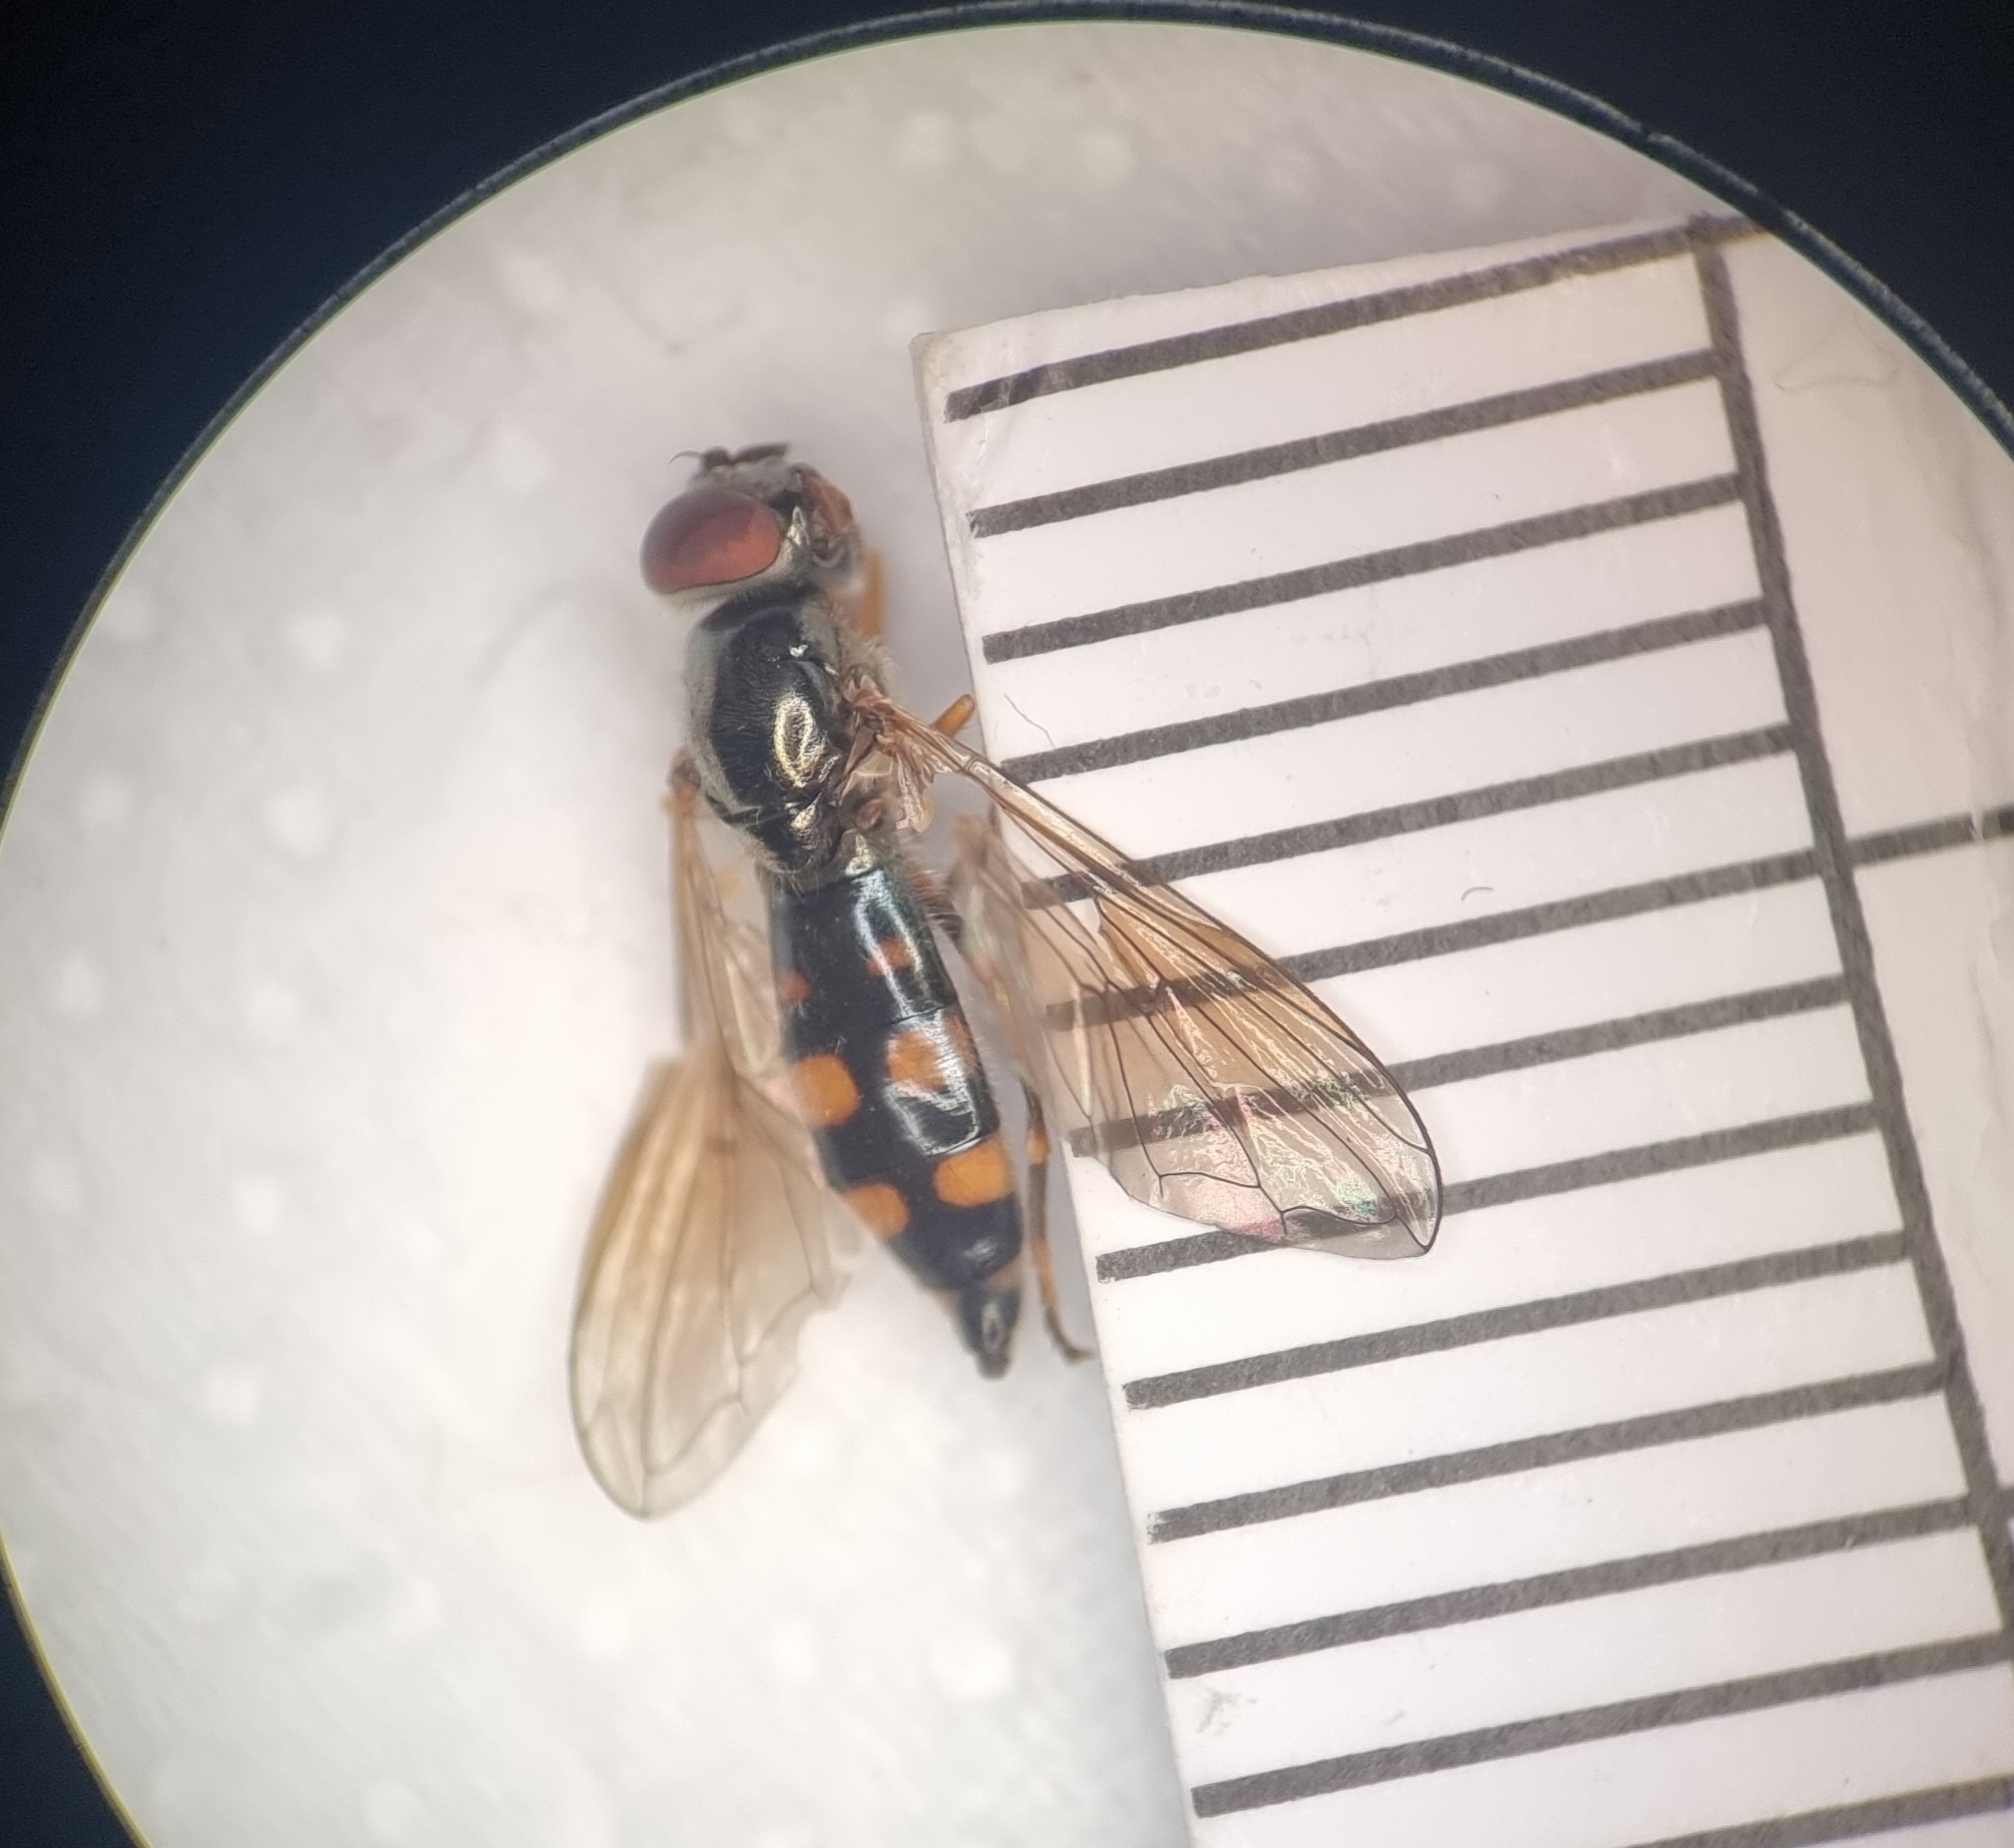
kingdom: Animalia
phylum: Arthropoda
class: Insecta
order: Diptera
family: Syrphidae
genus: Platycheirus
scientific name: Platycheirus
